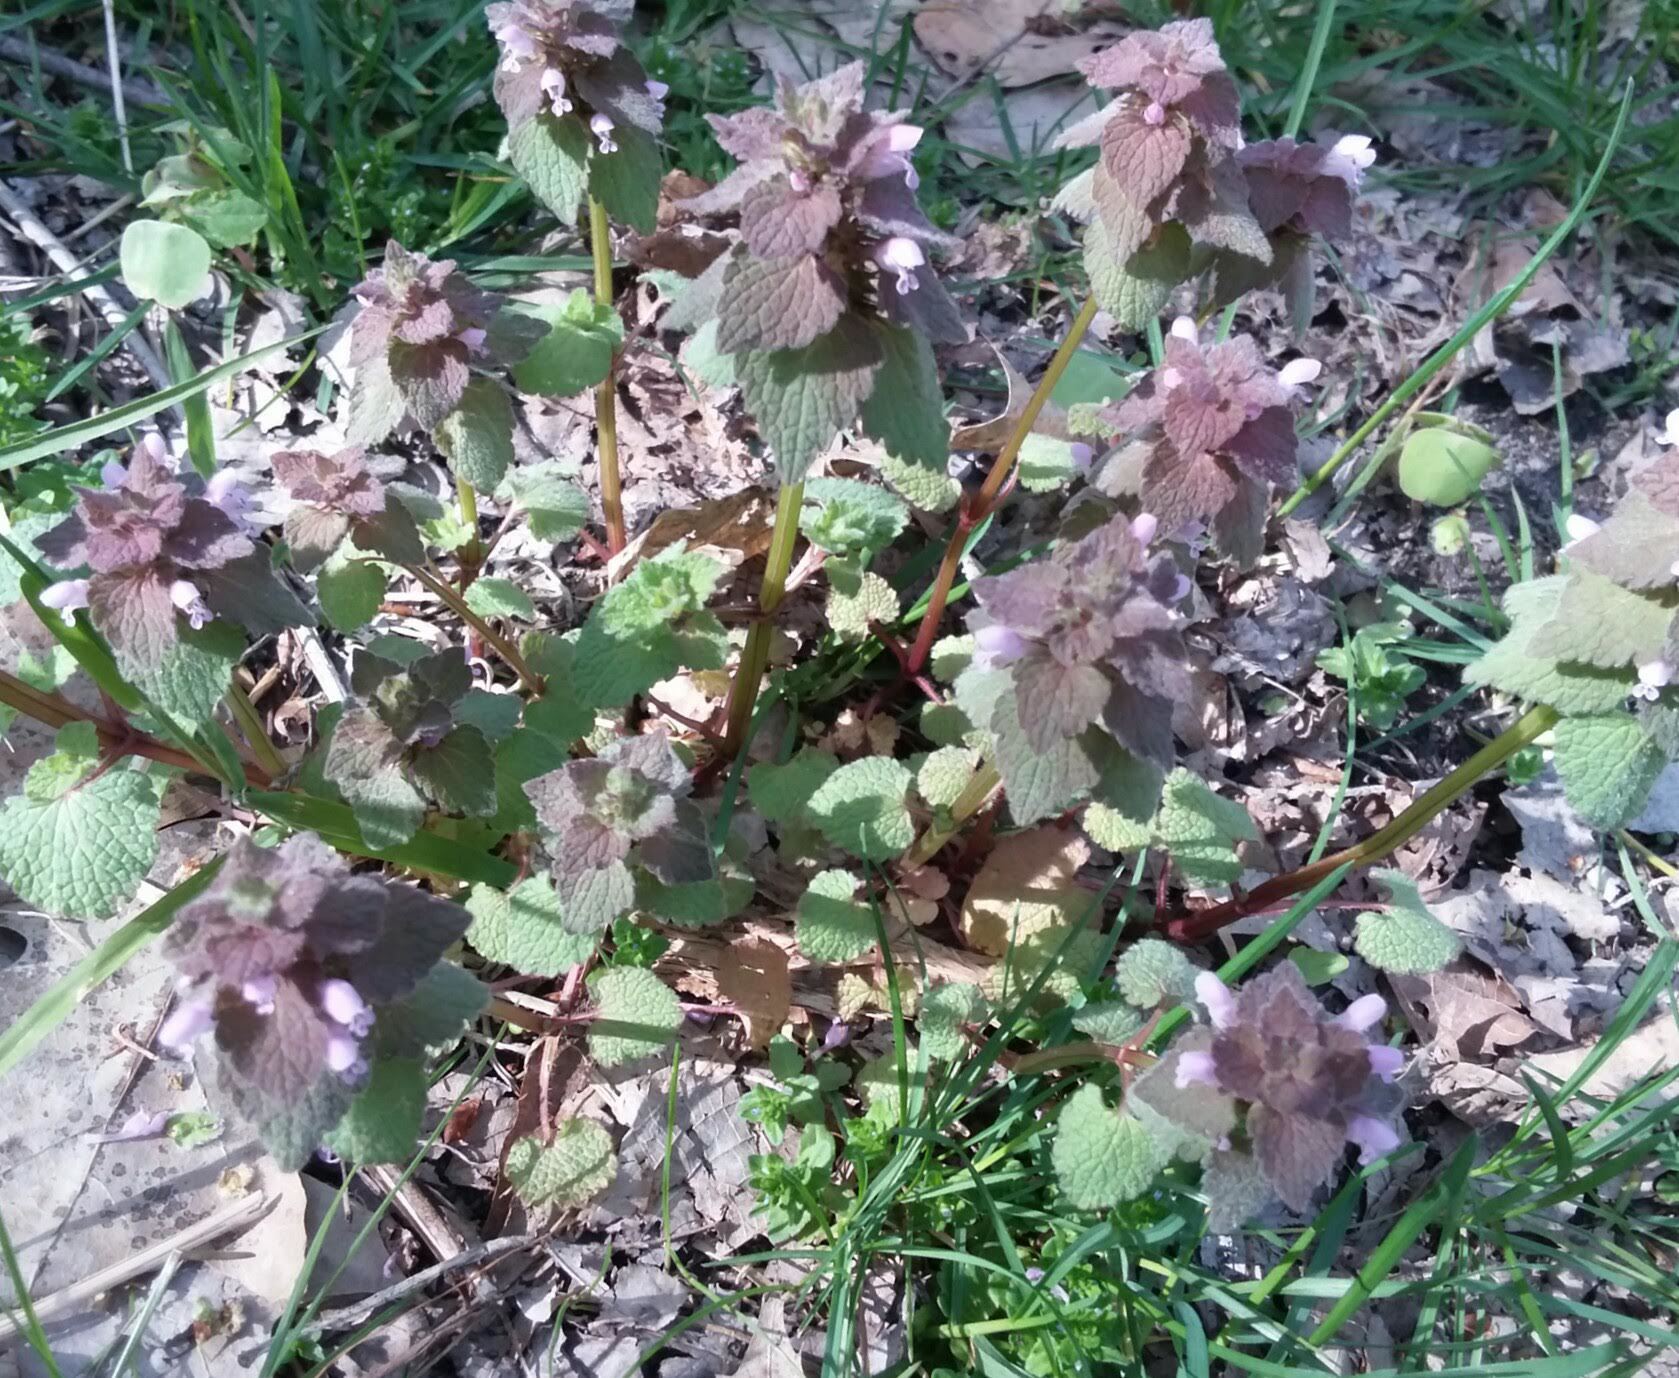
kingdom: Plantae
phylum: Tracheophyta
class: Magnoliopsida
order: Lamiales
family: Lamiaceae
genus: Lamium
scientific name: Lamium purpureum
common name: Red dead-nettle
